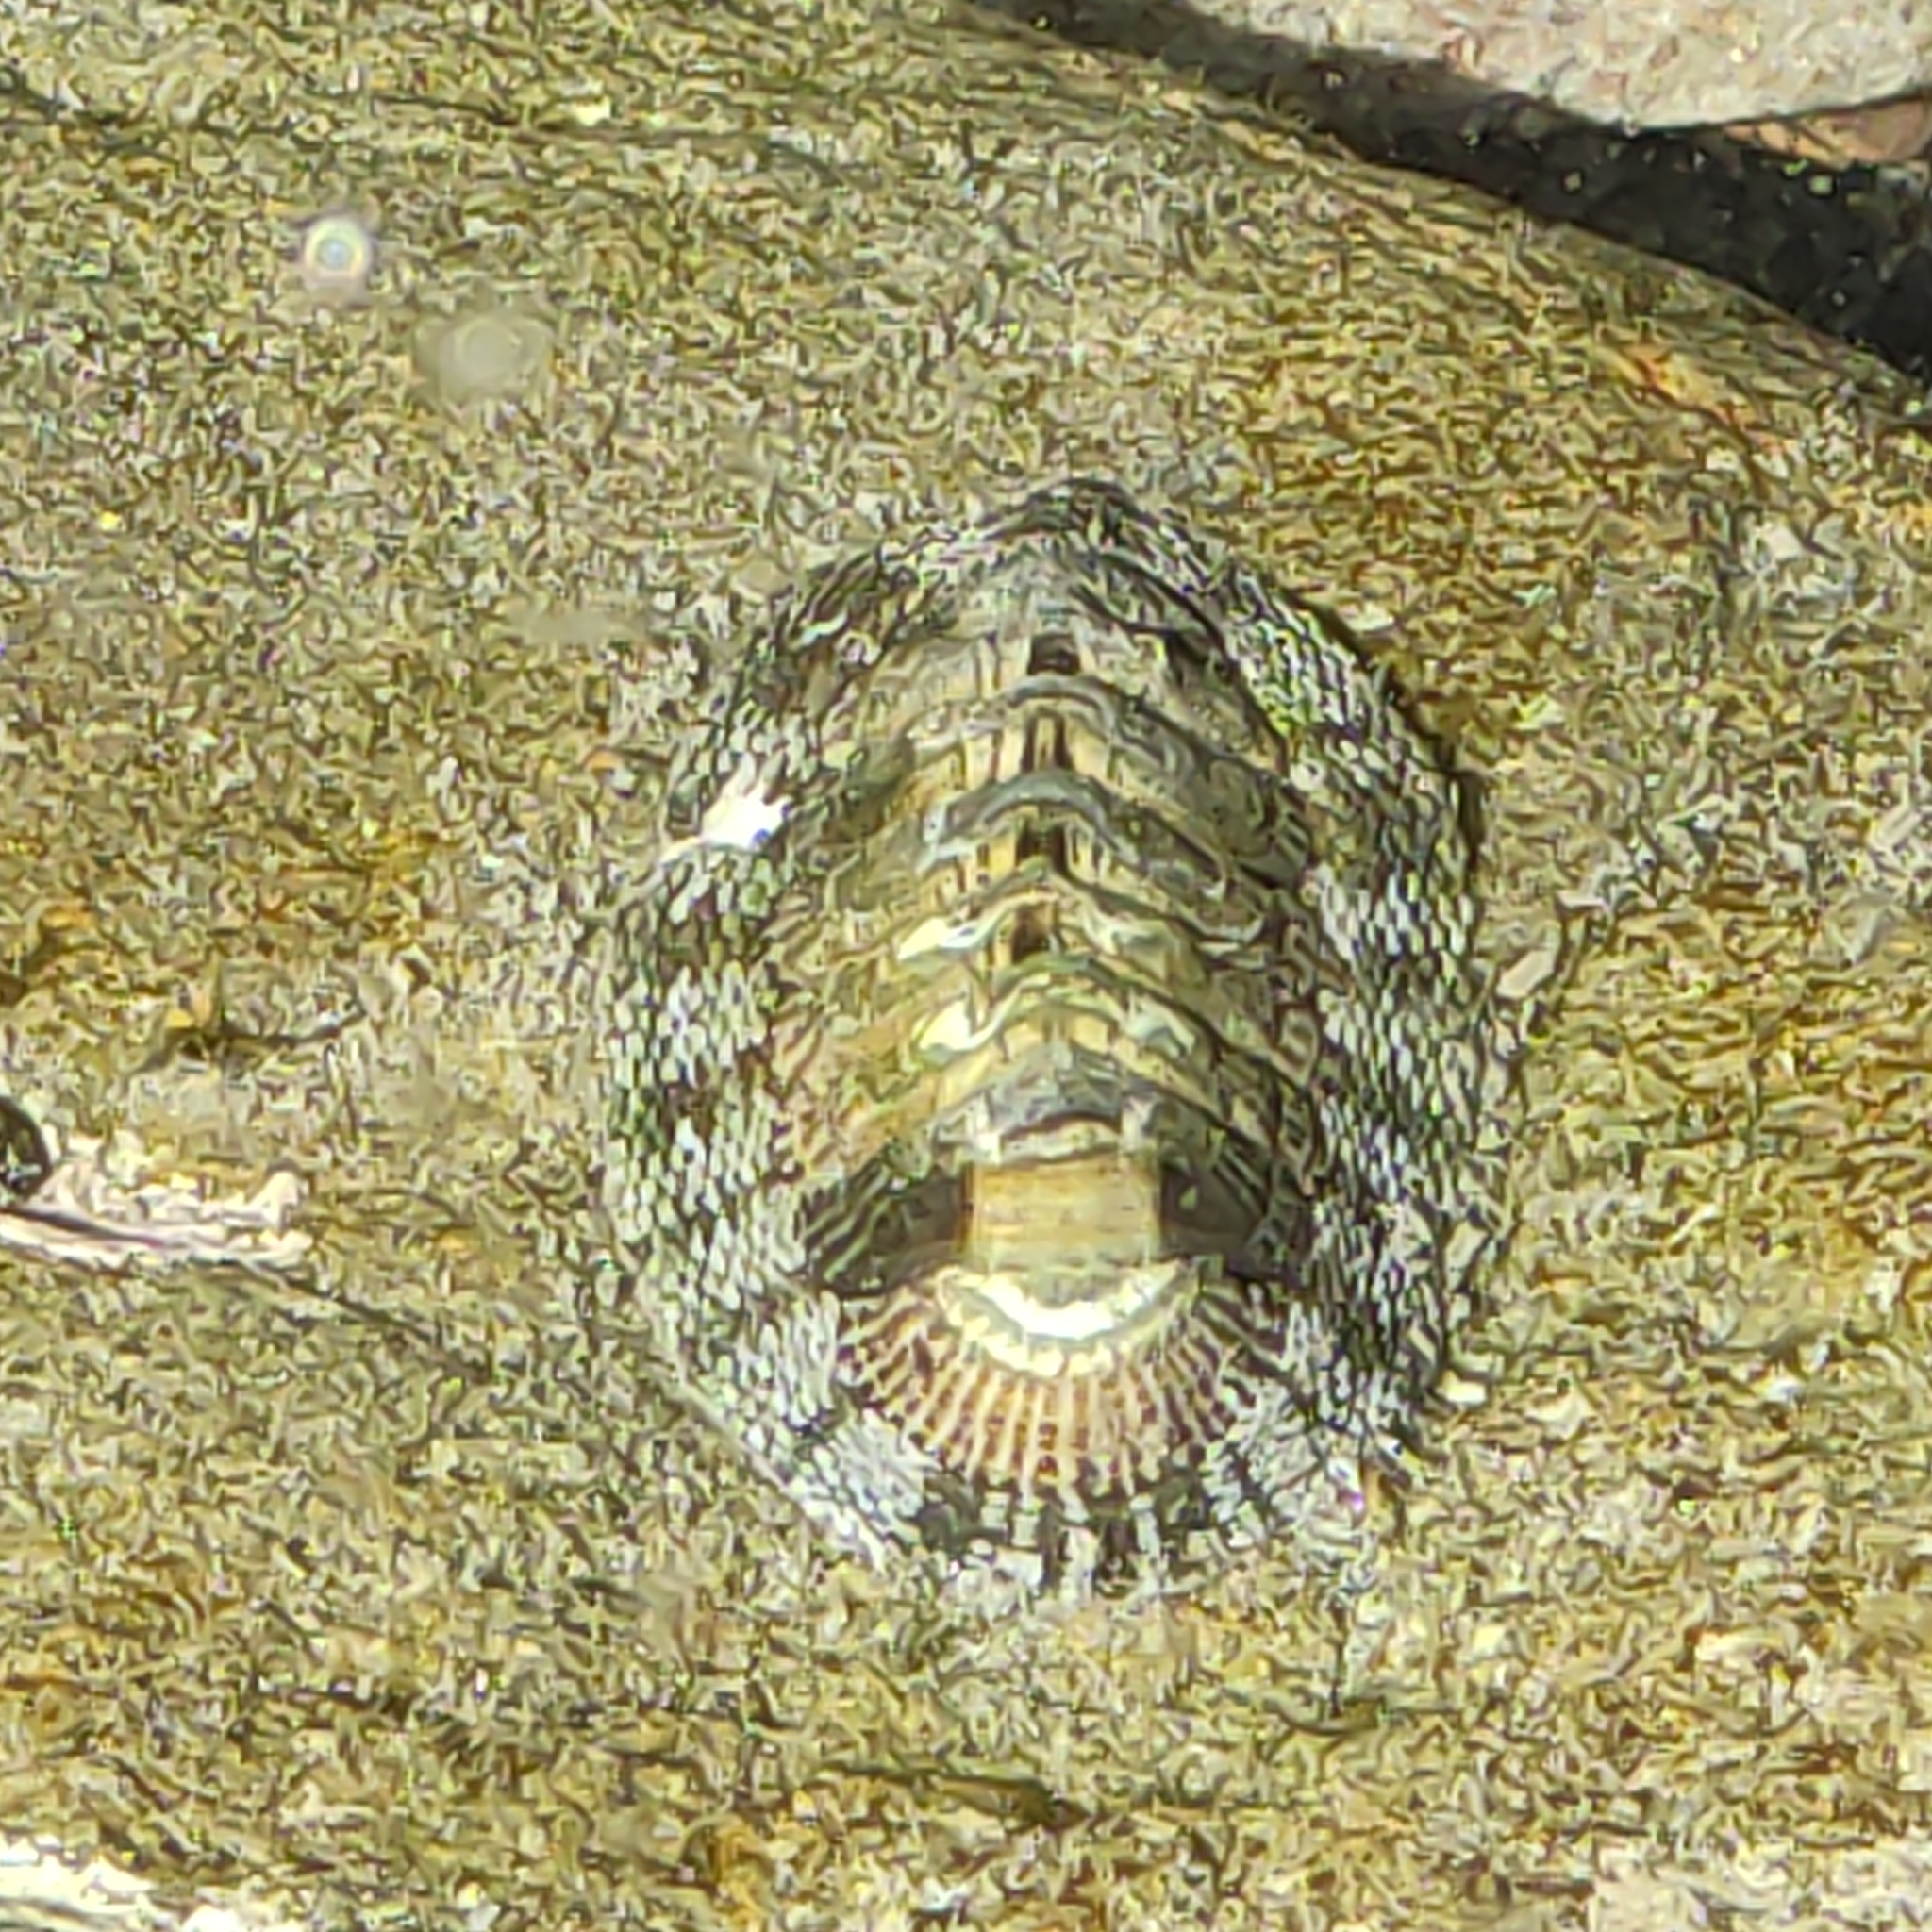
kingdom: Animalia
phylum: Mollusca
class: Polyplacophora
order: Chitonida
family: Chitonidae
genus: Sypharochiton
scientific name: Sypharochiton pelliserpentis
